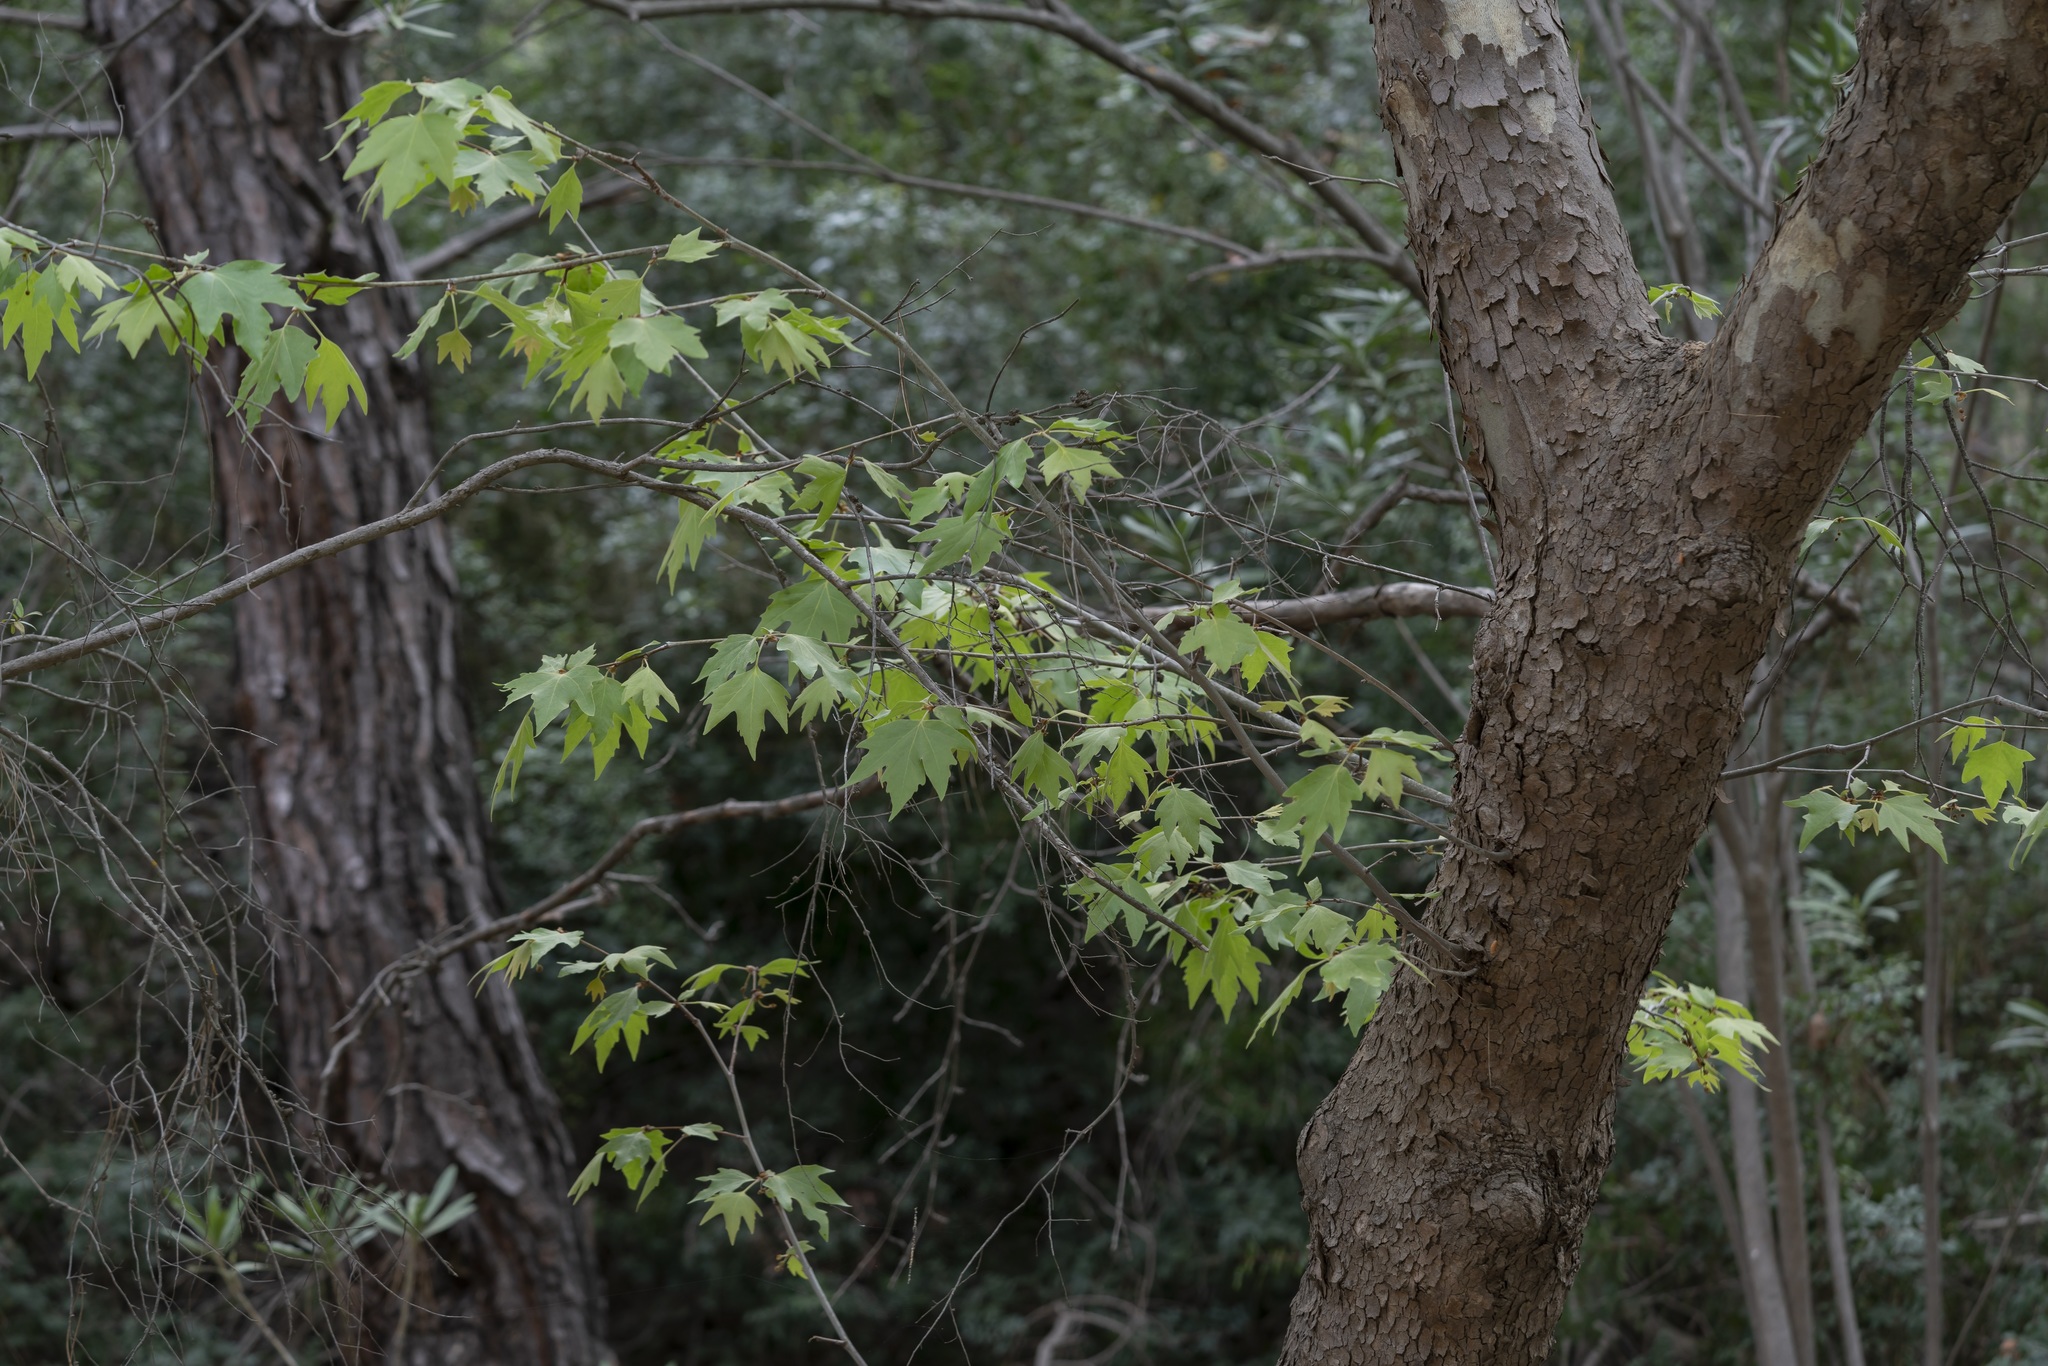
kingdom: Plantae
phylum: Tracheophyta
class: Magnoliopsida
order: Proteales
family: Platanaceae
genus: Platanus
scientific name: Platanus orientalis
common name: Oriental plane
